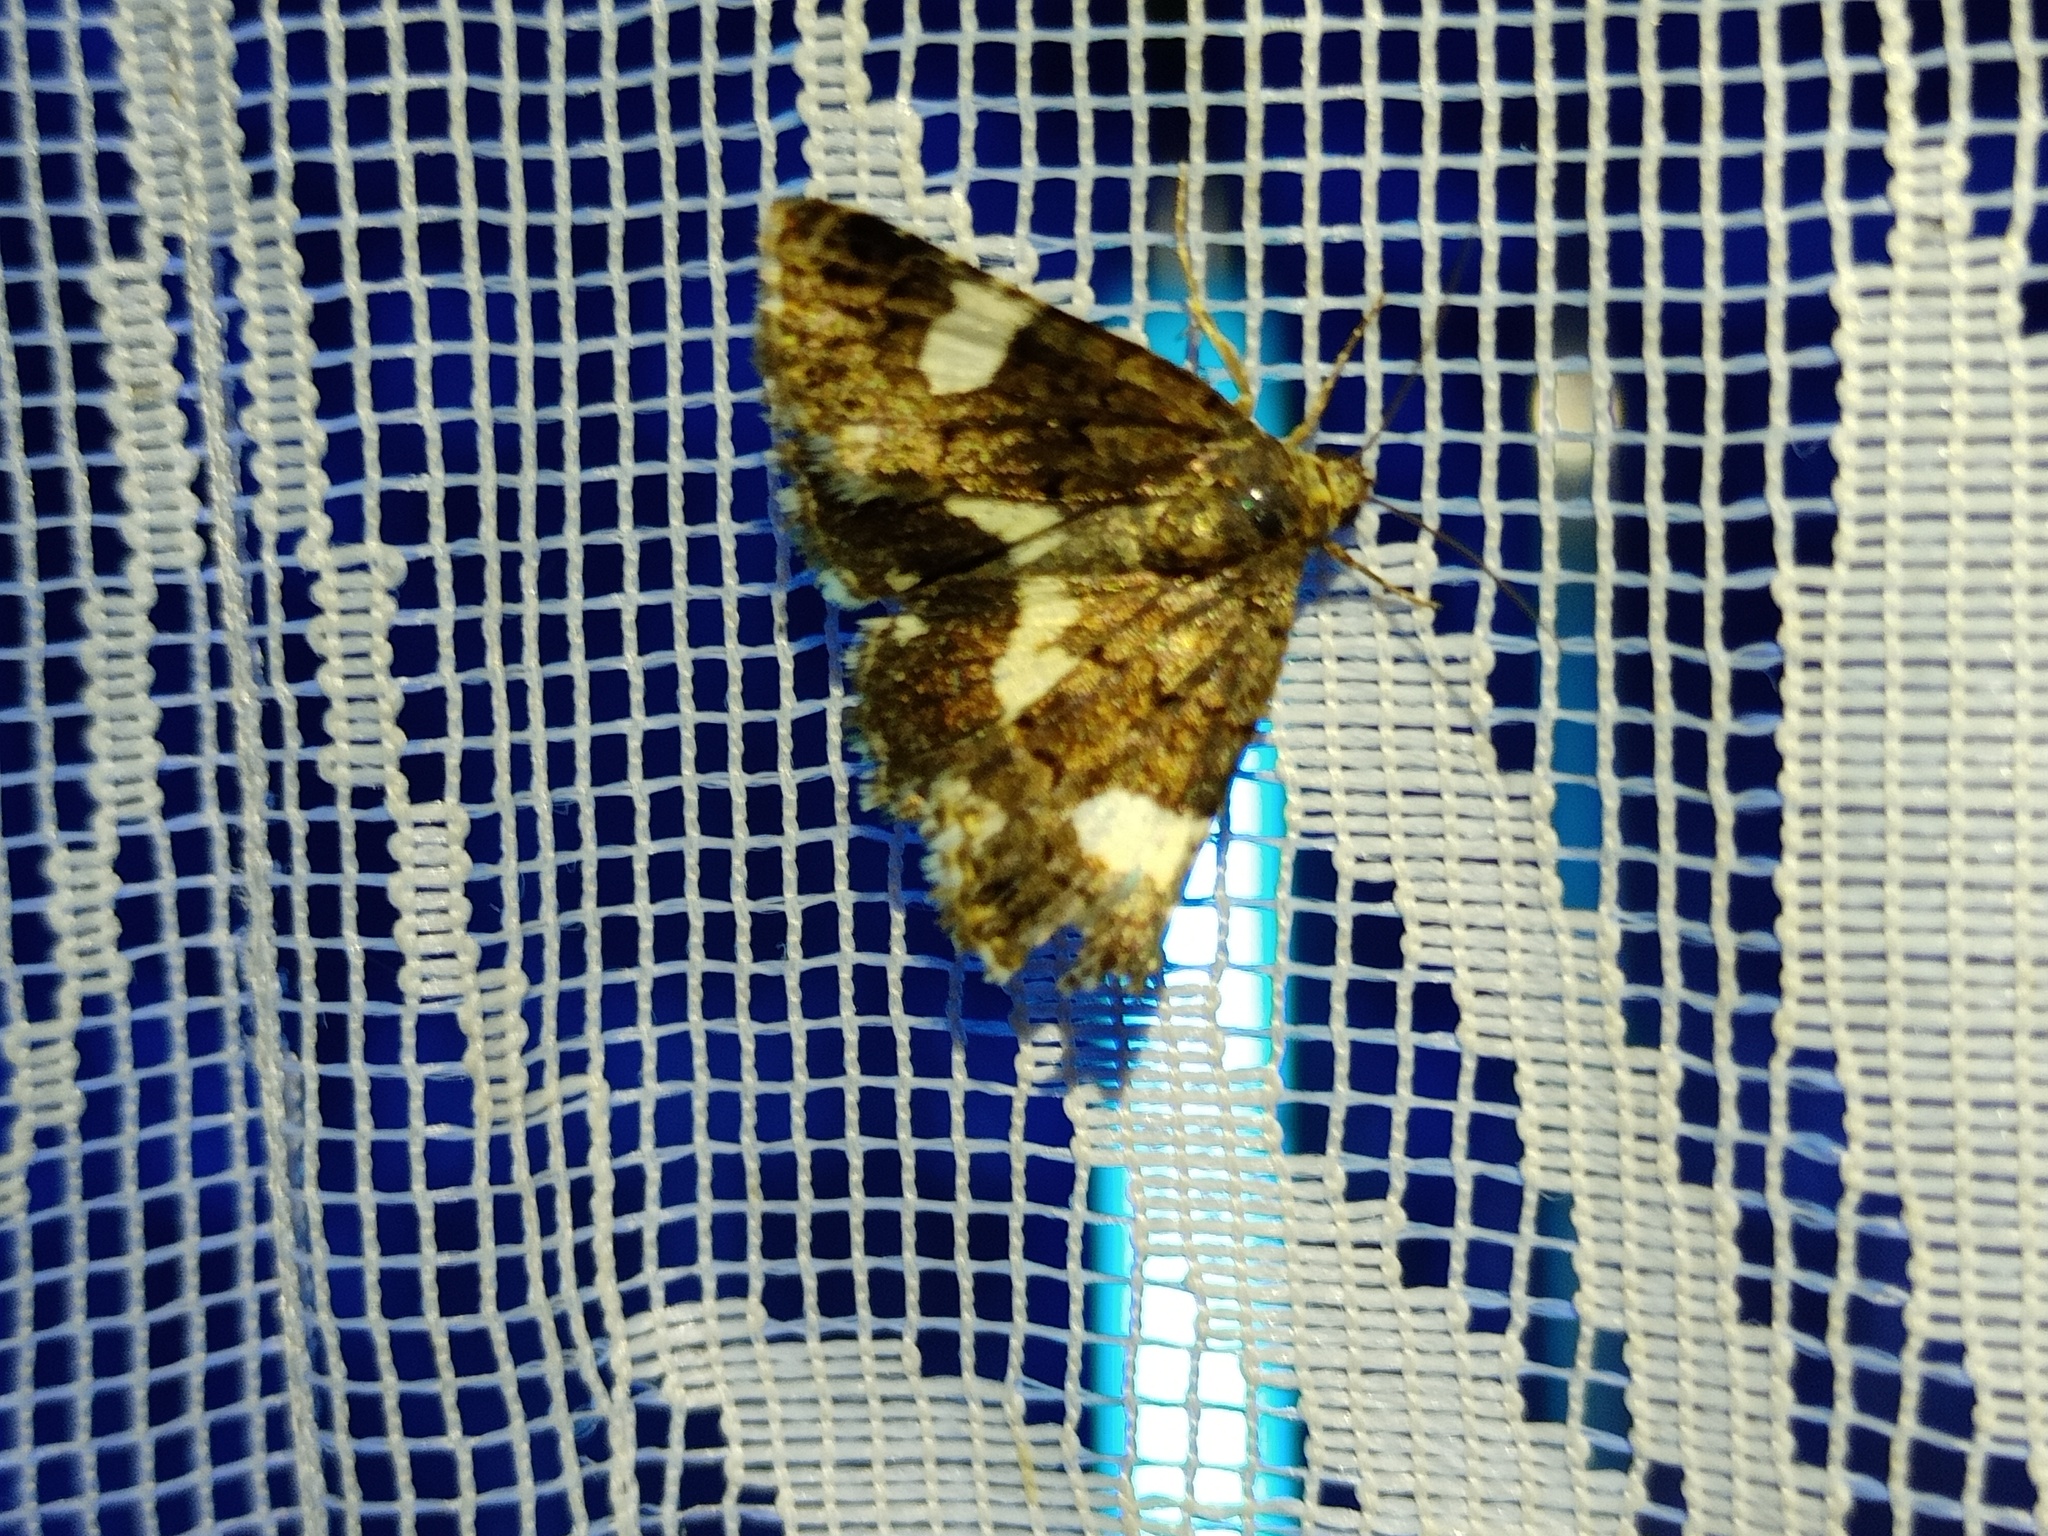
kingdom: Animalia
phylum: Arthropoda
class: Insecta
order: Lepidoptera
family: Erebidae
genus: Tyta
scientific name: Tyta luctuosa
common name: Four-spotted
